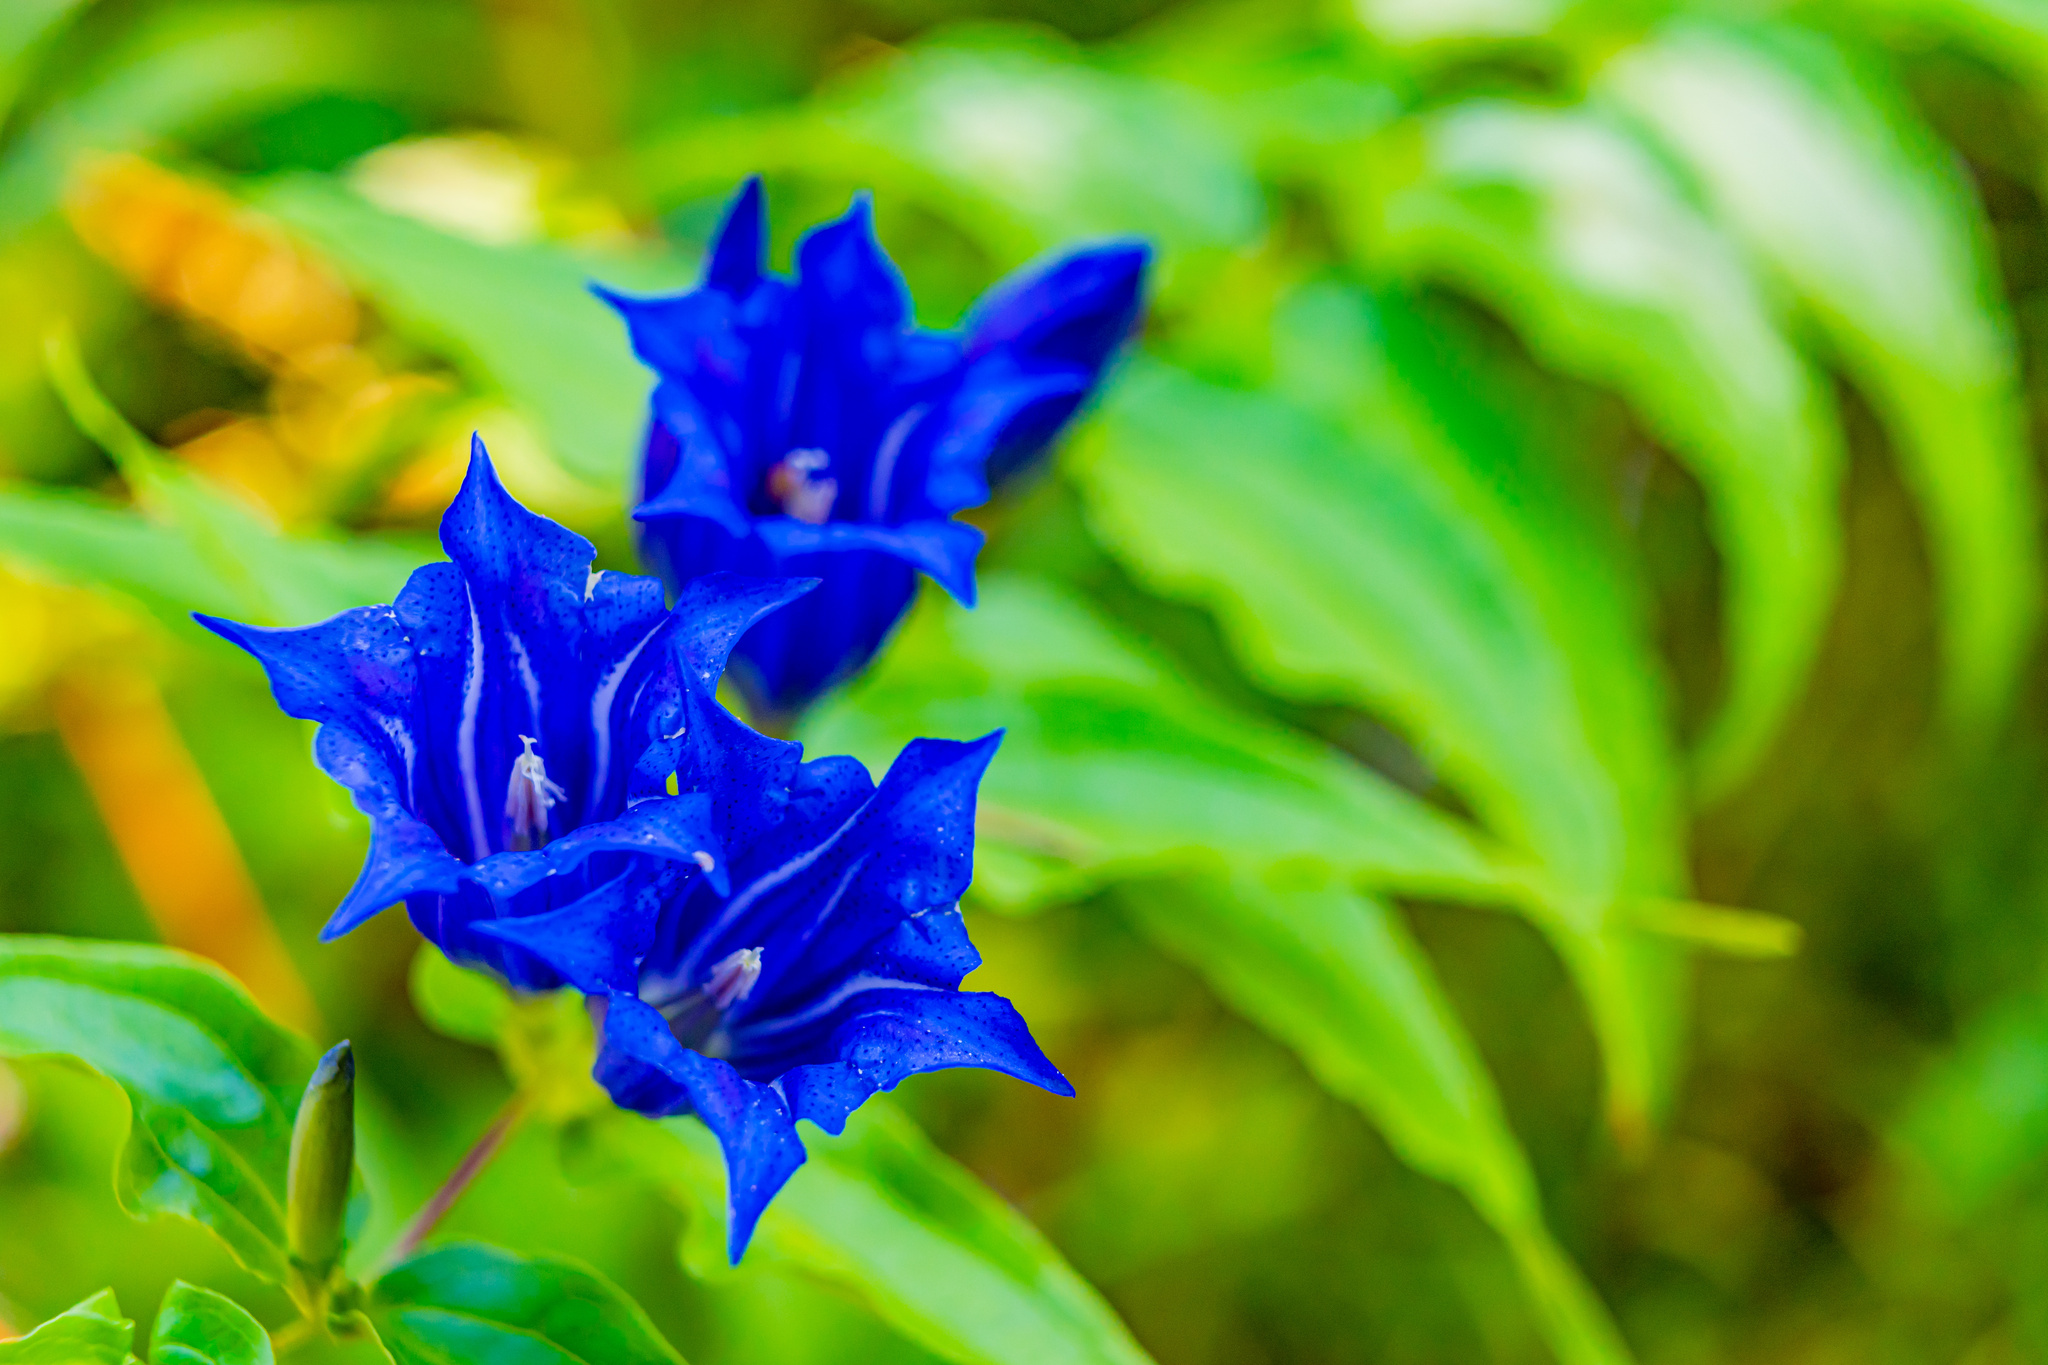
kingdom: Plantae
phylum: Tracheophyta
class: Magnoliopsida
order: Gentianales
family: Gentianaceae
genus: Gentiana
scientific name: Gentiana asclepiadea
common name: Willow gentian
